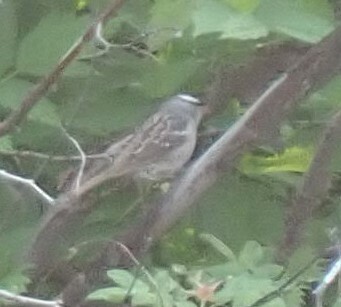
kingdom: Animalia
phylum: Chordata
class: Aves
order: Passeriformes
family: Passerellidae
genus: Zonotrichia
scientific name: Zonotrichia leucophrys
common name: White-crowned sparrow
